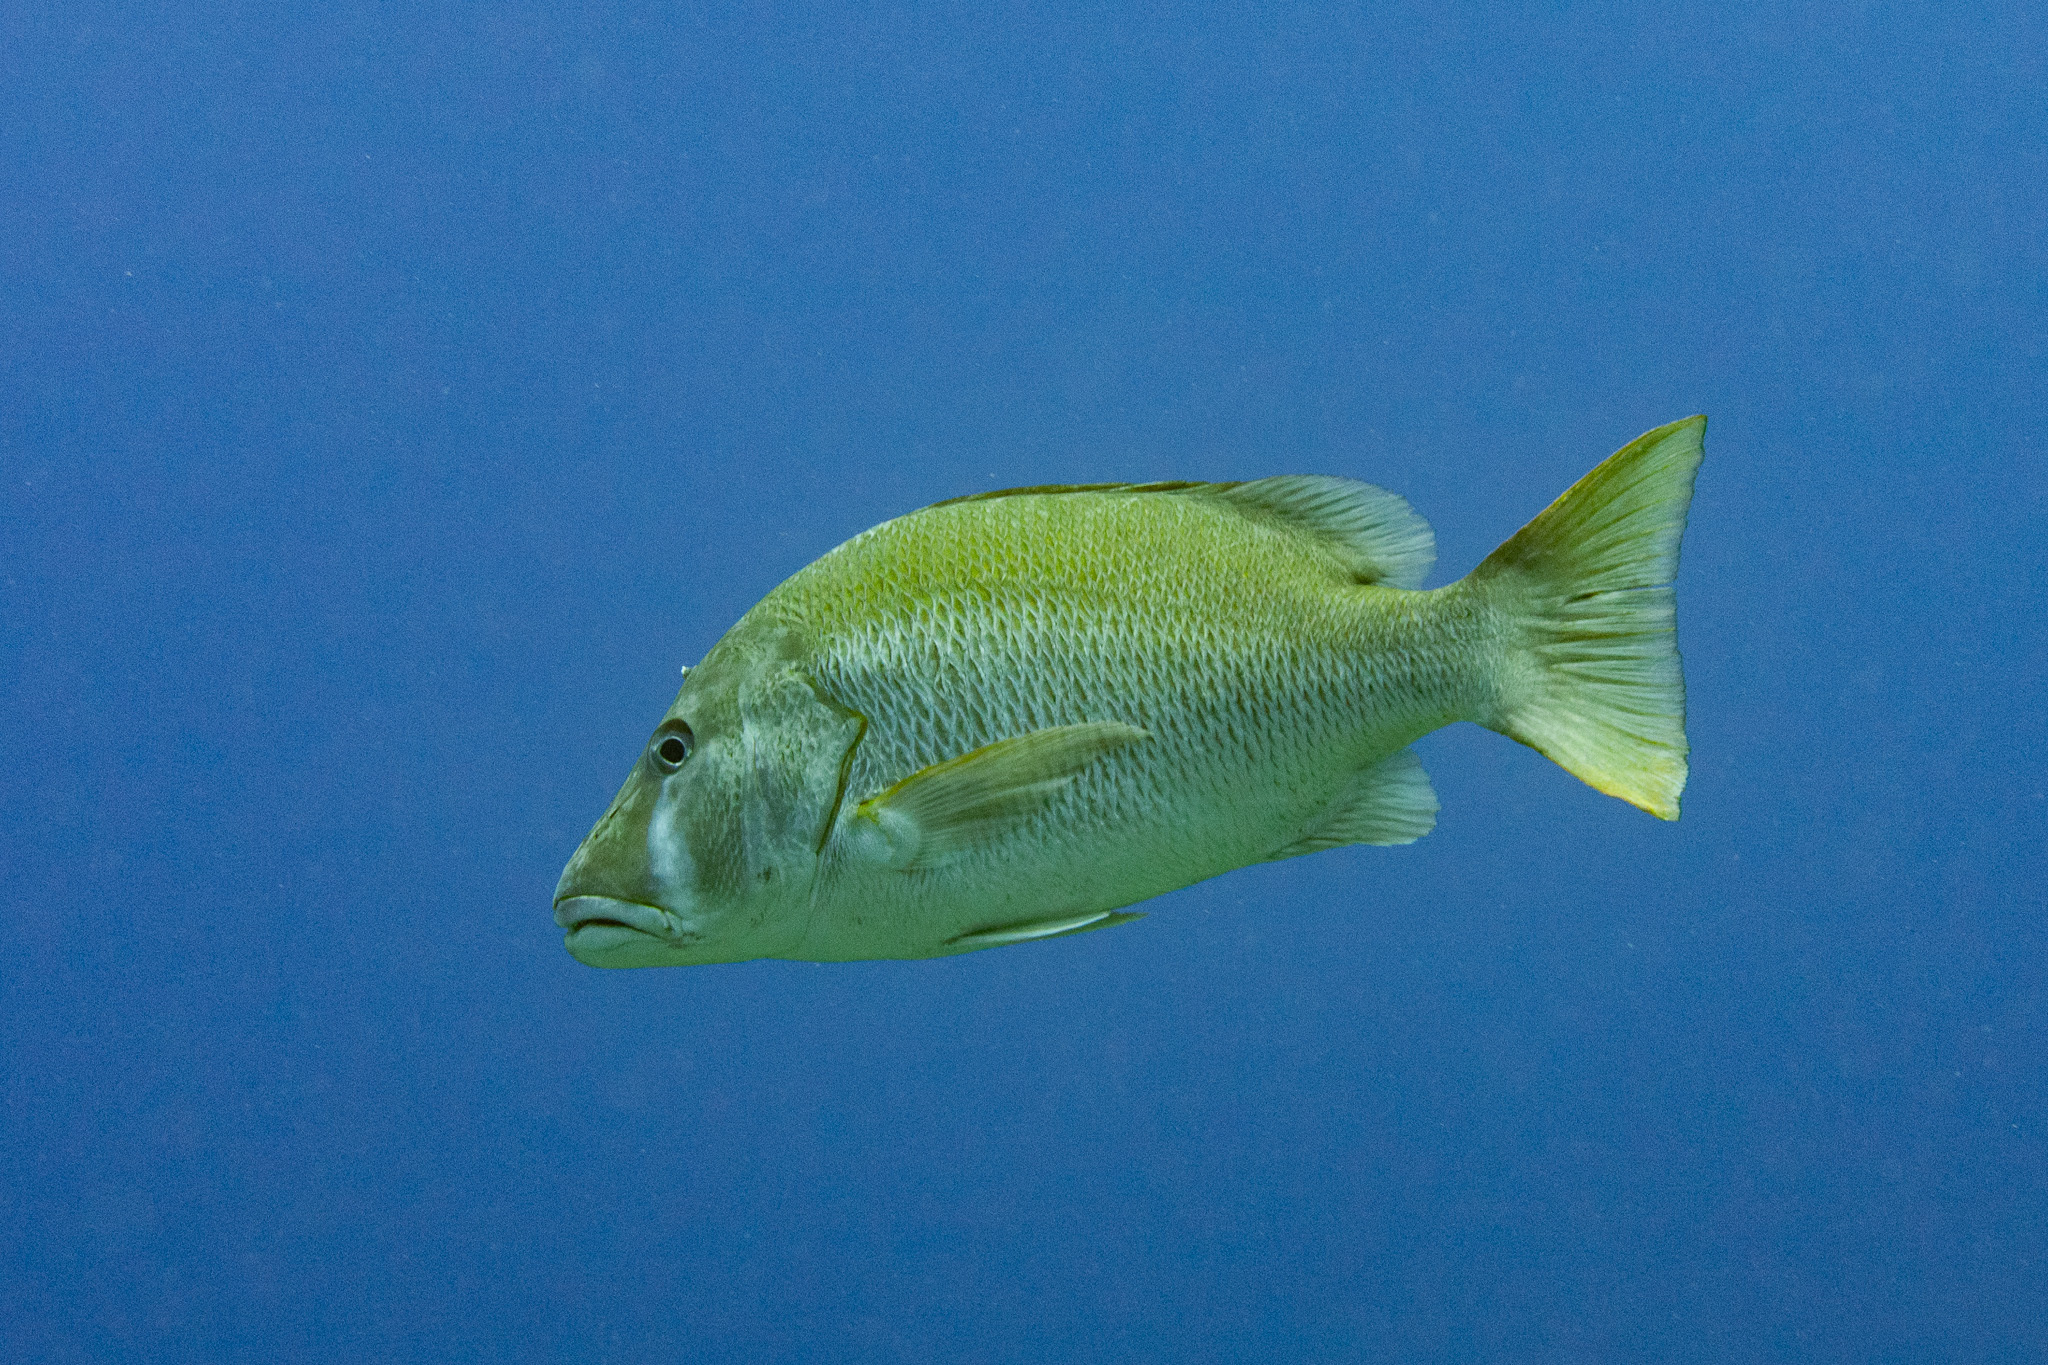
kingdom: Animalia
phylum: Chordata
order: Perciformes
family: Lutjanidae
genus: Lutjanus
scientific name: Lutjanus jocu
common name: Dog snapper
